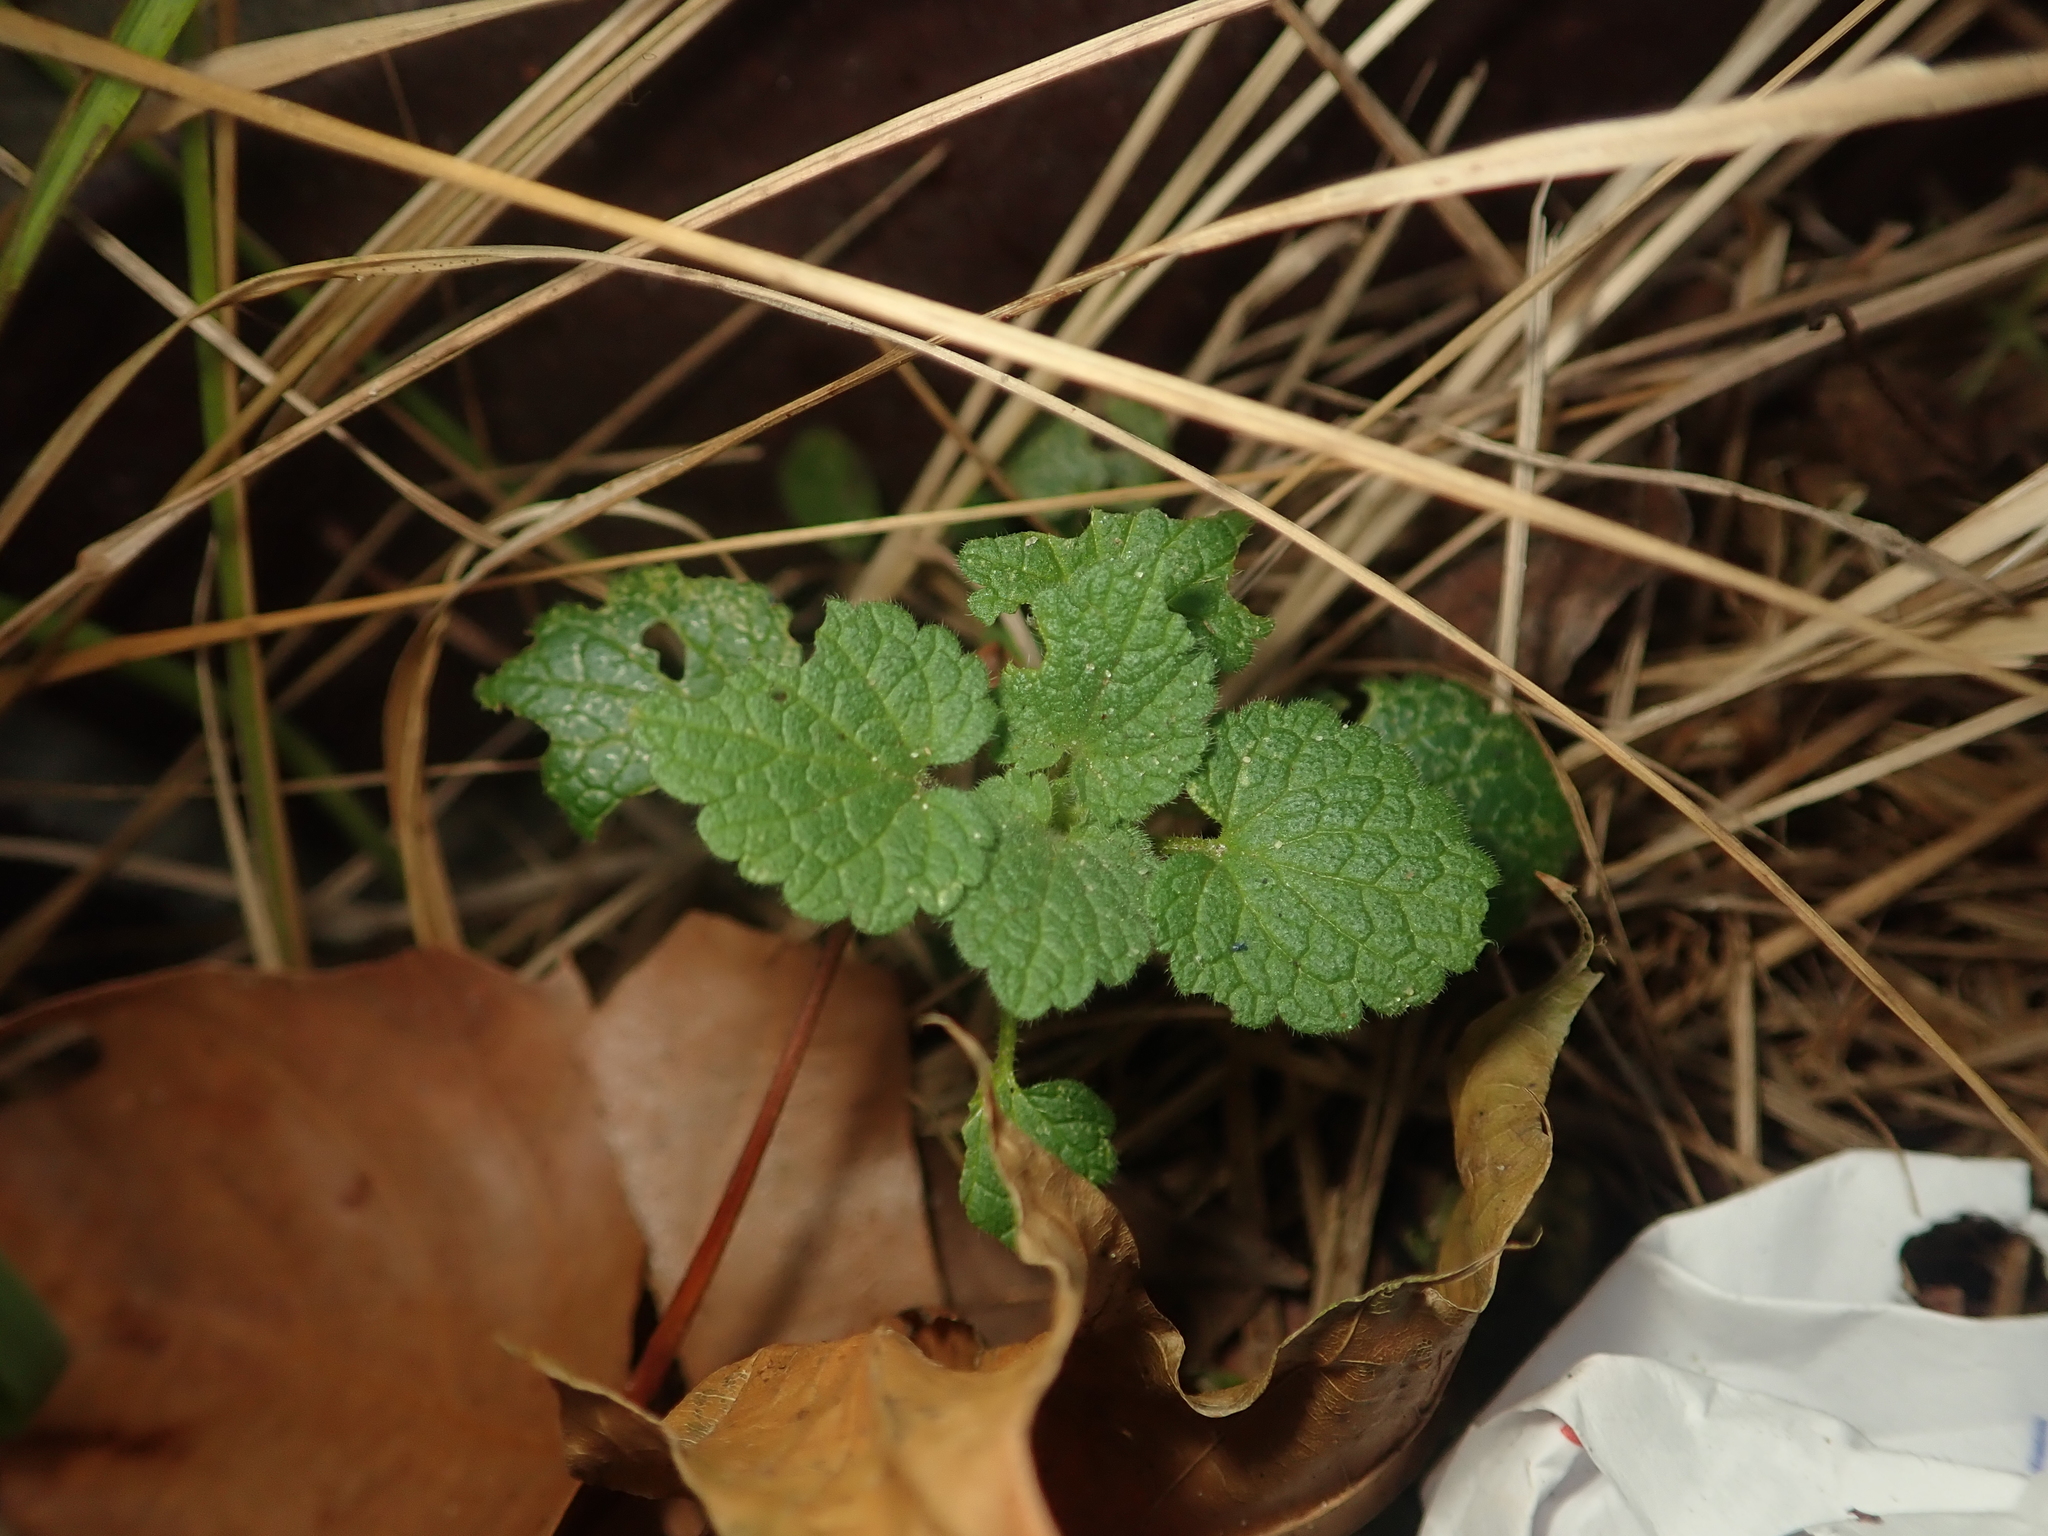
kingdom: Plantae
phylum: Tracheophyta
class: Magnoliopsida
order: Lamiales
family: Lamiaceae
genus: Lamium
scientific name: Lamium purpureum
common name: Red dead-nettle
